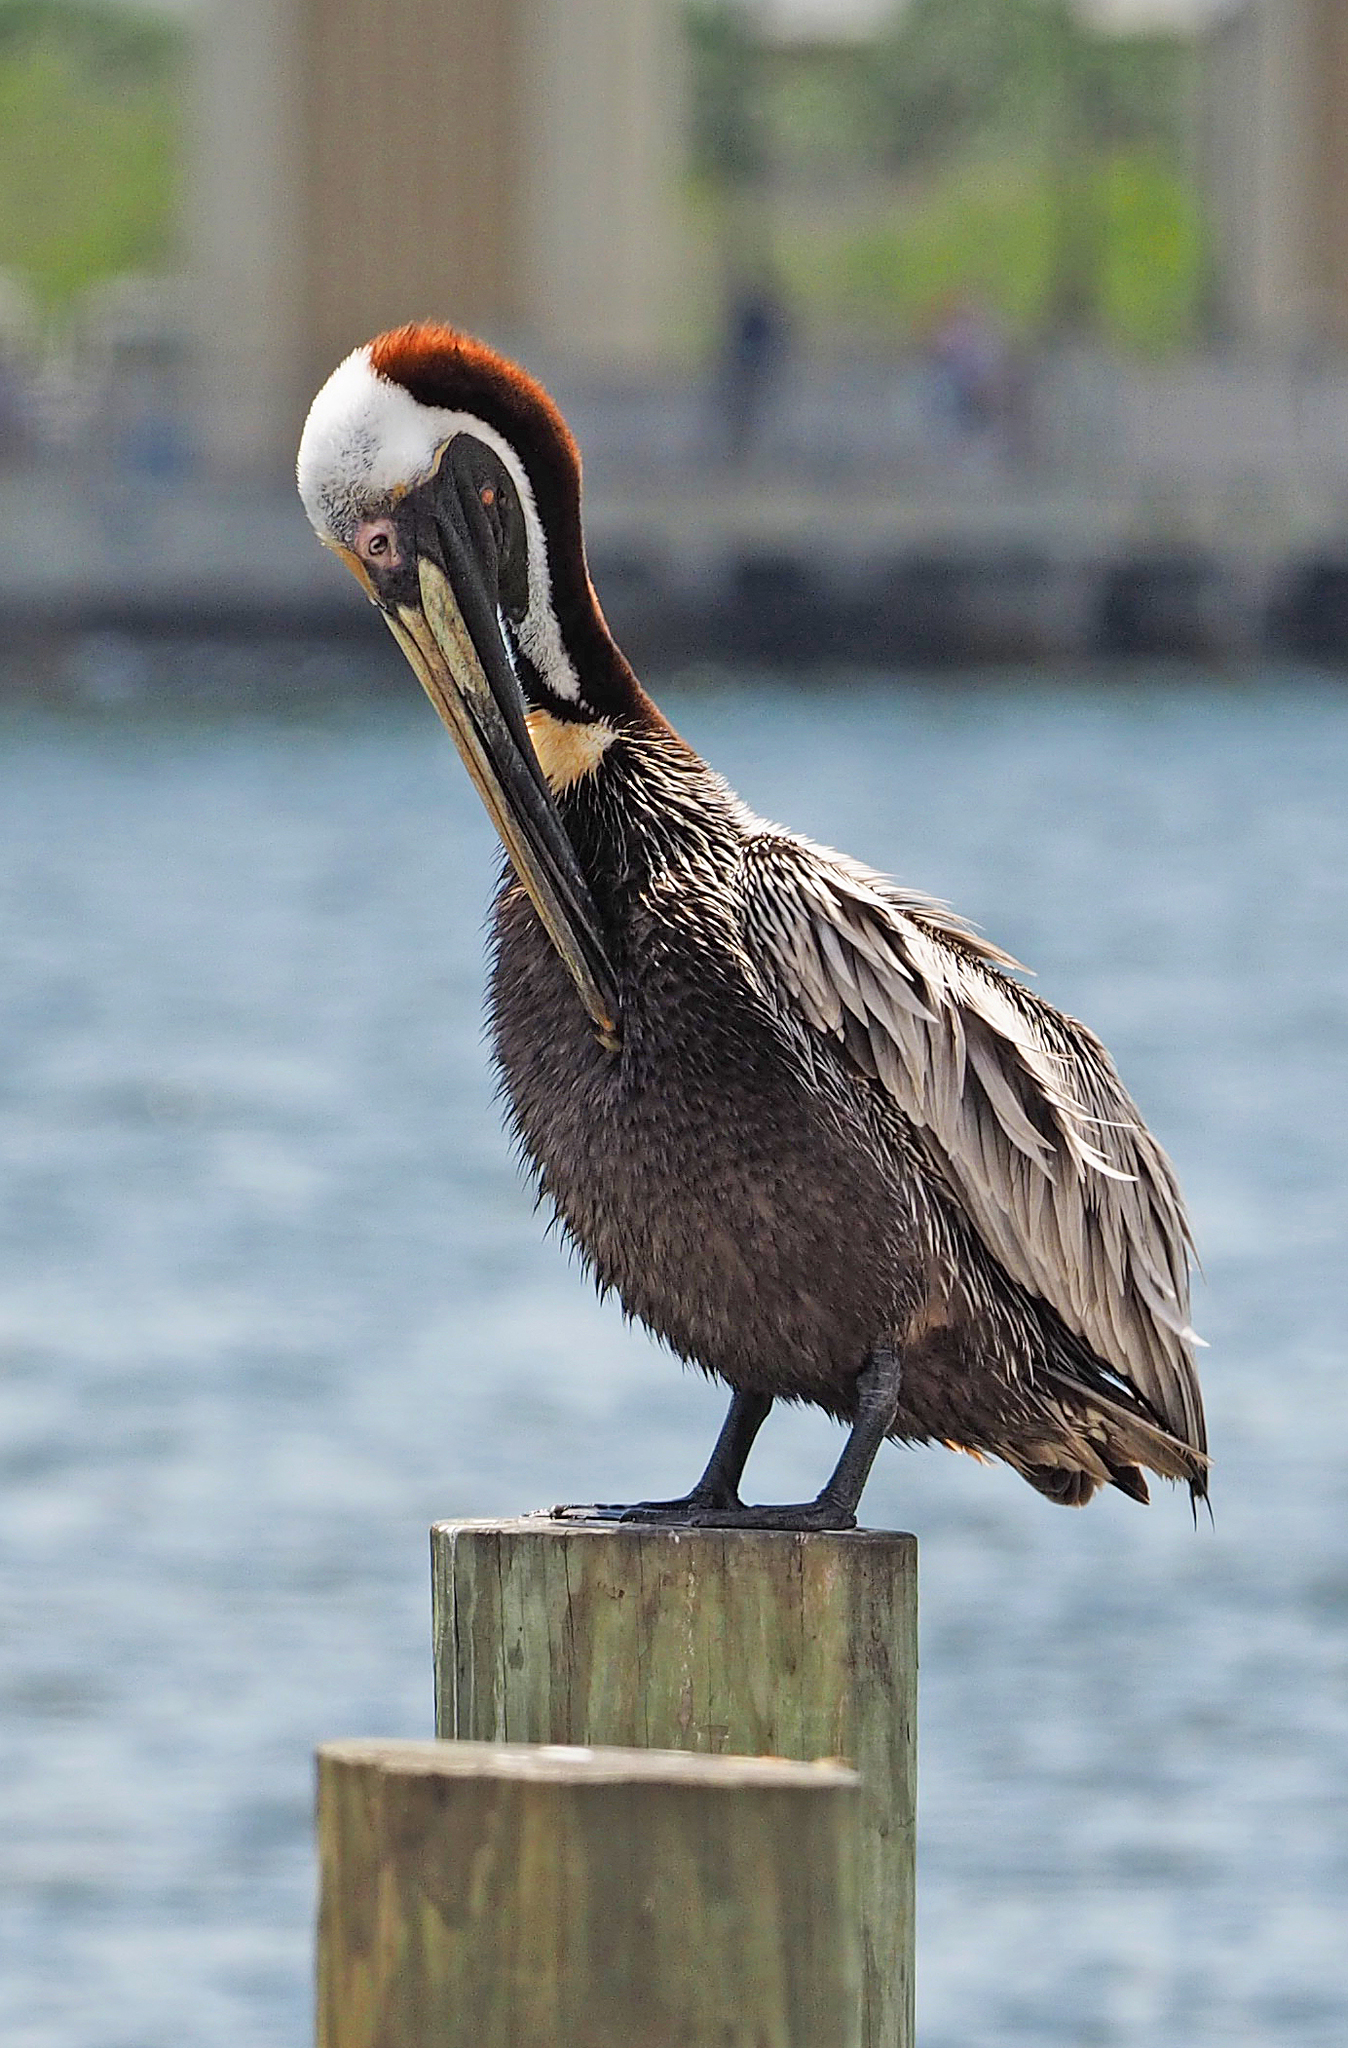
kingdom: Animalia
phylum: Chordata
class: Aves
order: Pelecaniformes
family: Pelecanidae
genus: Pelecanus
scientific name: Pelecanus occidentalis
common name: Brown pelican
